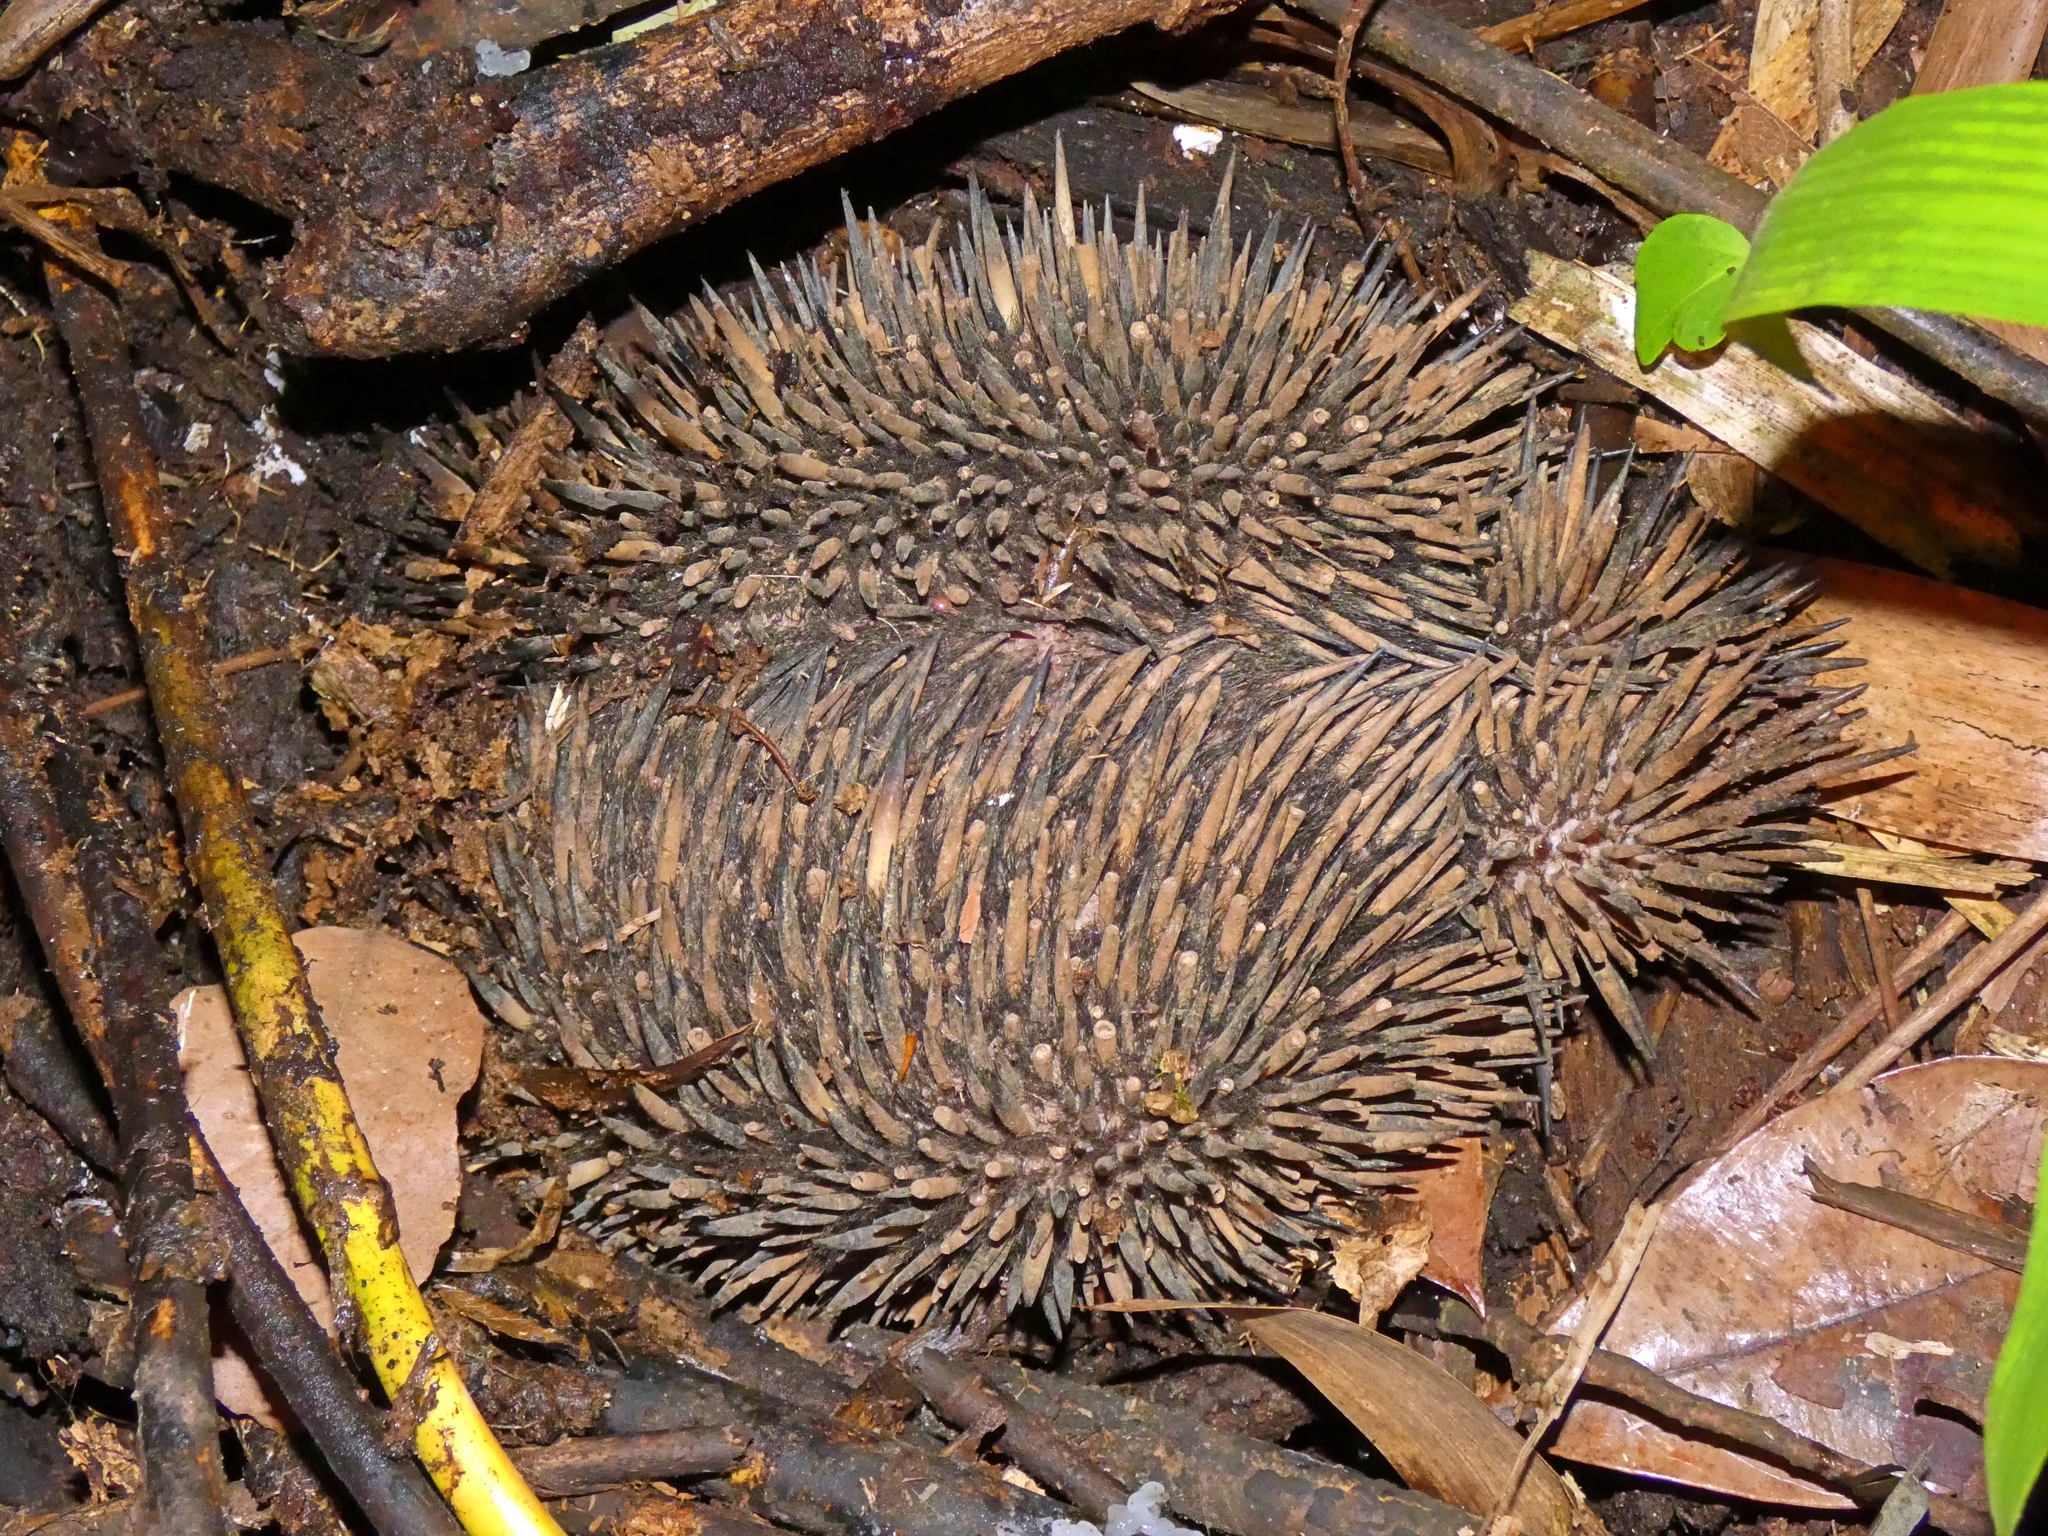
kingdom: Animalia
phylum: Chordata
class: Mammalia
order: Monotremata
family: Tachyglossidae
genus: Tachyglossus
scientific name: Tachyglossus aculeatus
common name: Short-beaked echidna
